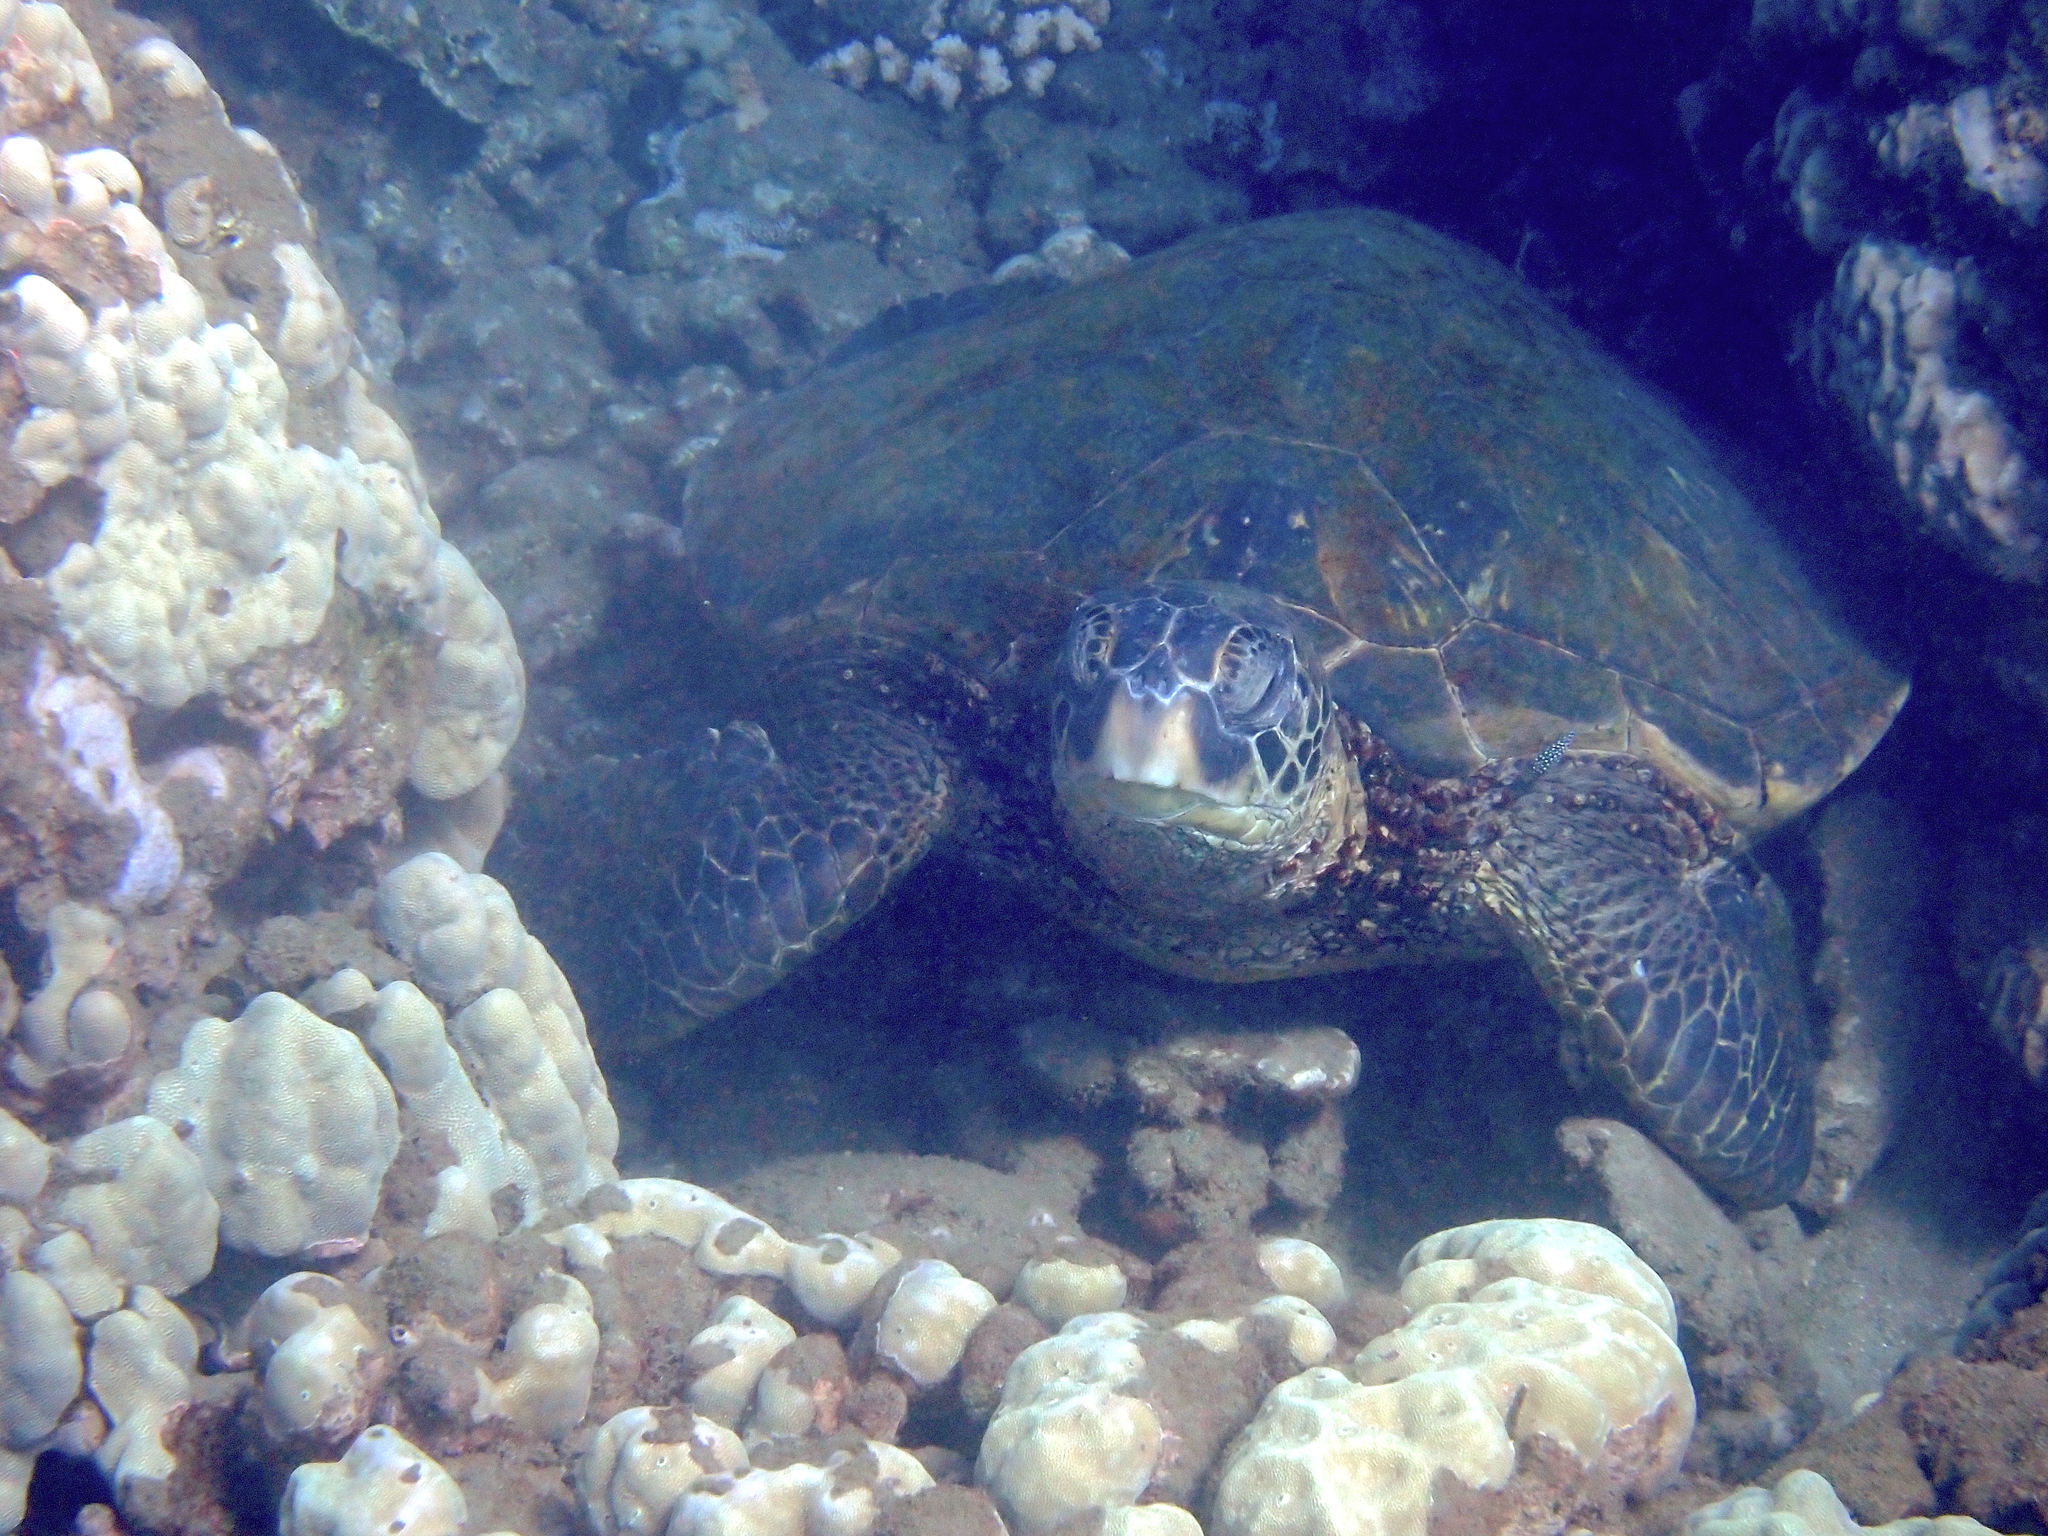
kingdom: Animalia
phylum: Chordata
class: Testudines
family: Cheloniidae
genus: Chelonia
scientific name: Chelonia mydas
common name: Green turtle
